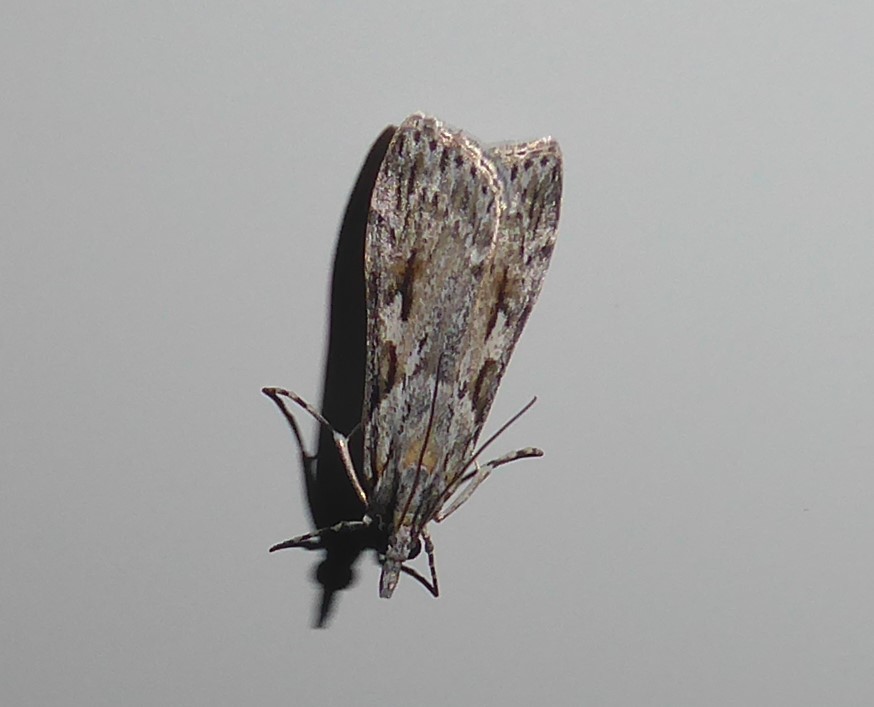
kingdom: Animalia
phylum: Arthropoda
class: Insecta
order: Lepidoptera
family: Crambidae
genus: Scoparia
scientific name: Scoparia halopis
